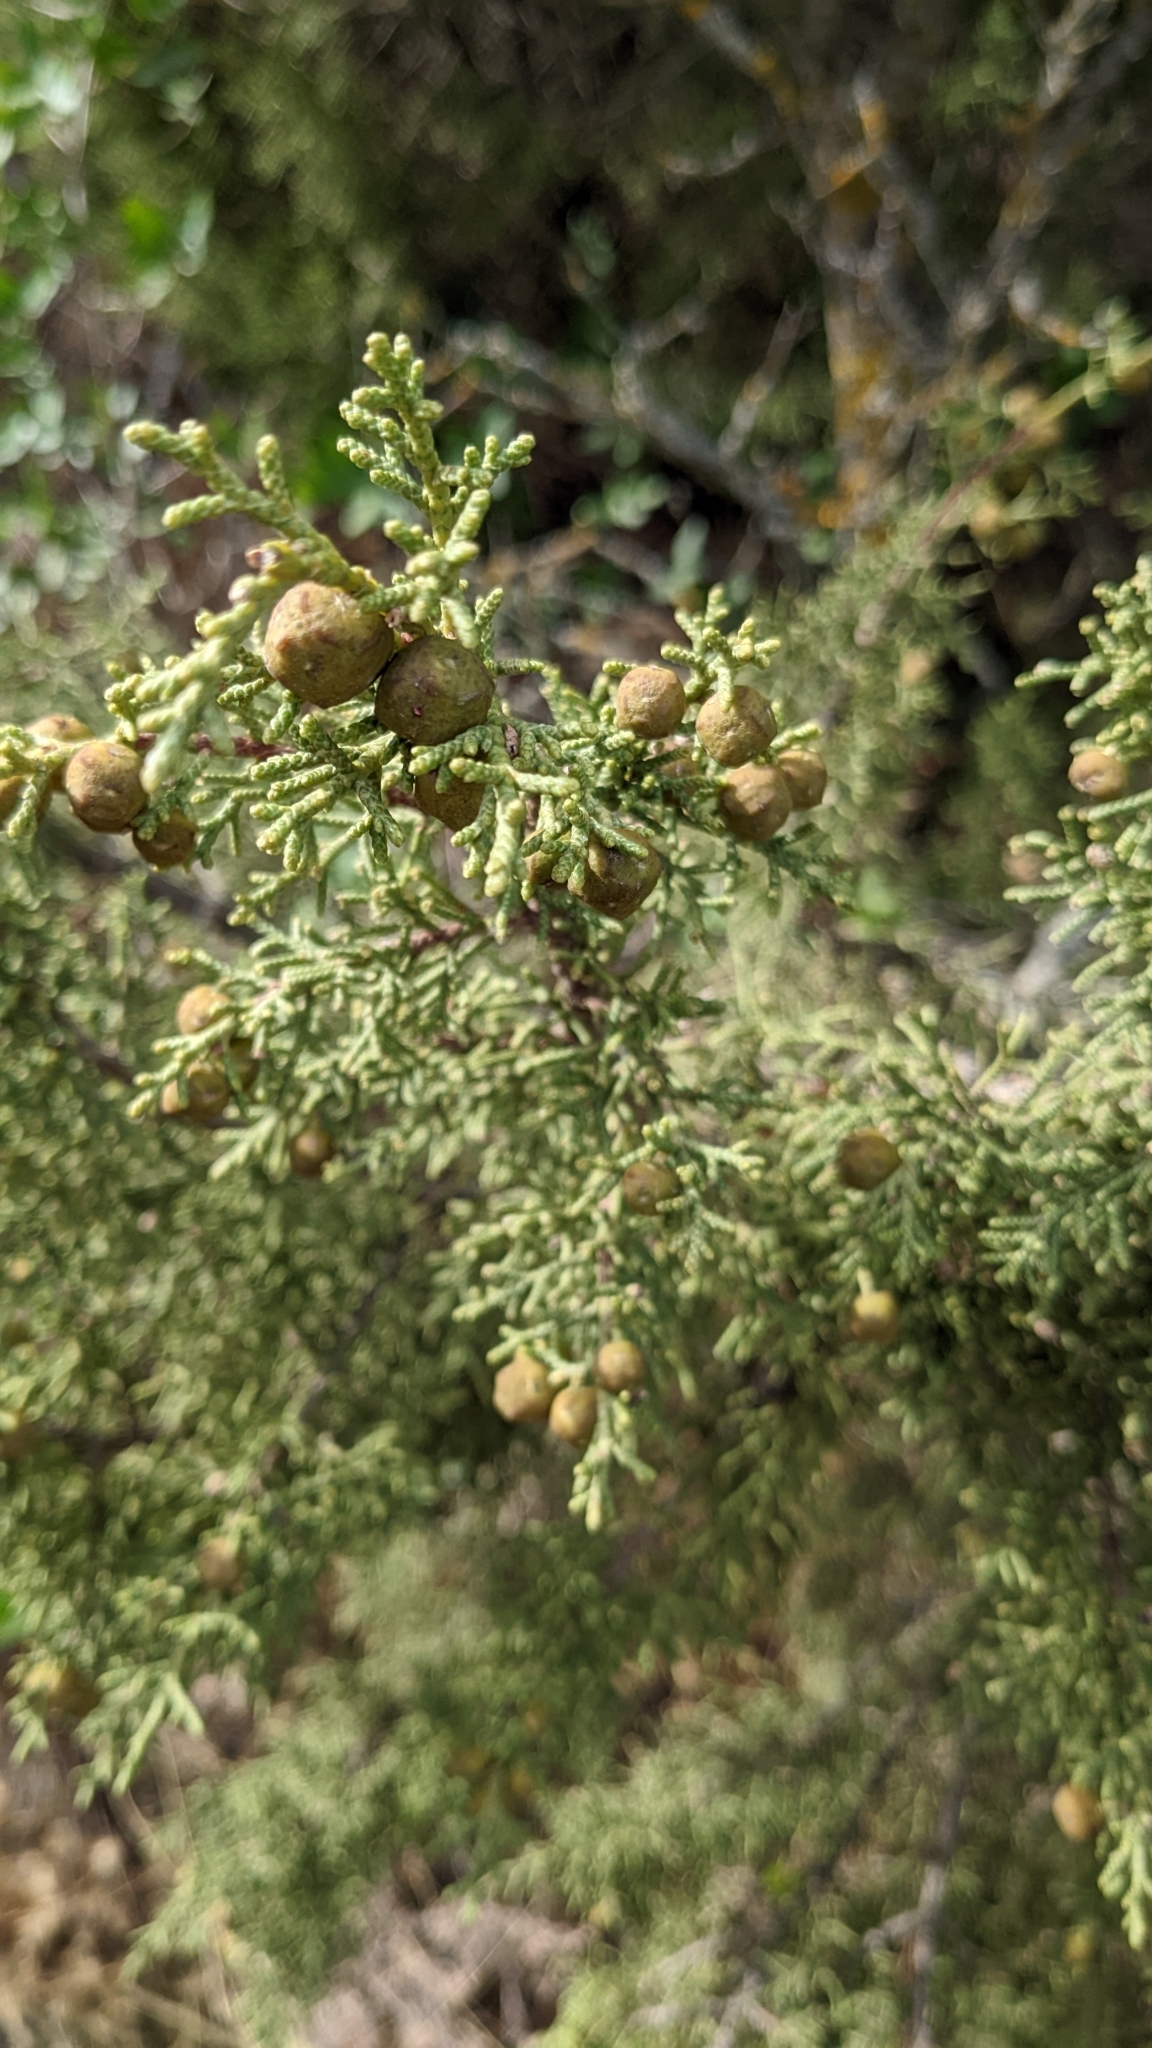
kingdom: Plantae
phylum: Tracheophyta
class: Pinopsida
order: Pinales
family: Cupressaceae
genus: Juniperus
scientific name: Juniperus phoenicea
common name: Phoenician juniper
